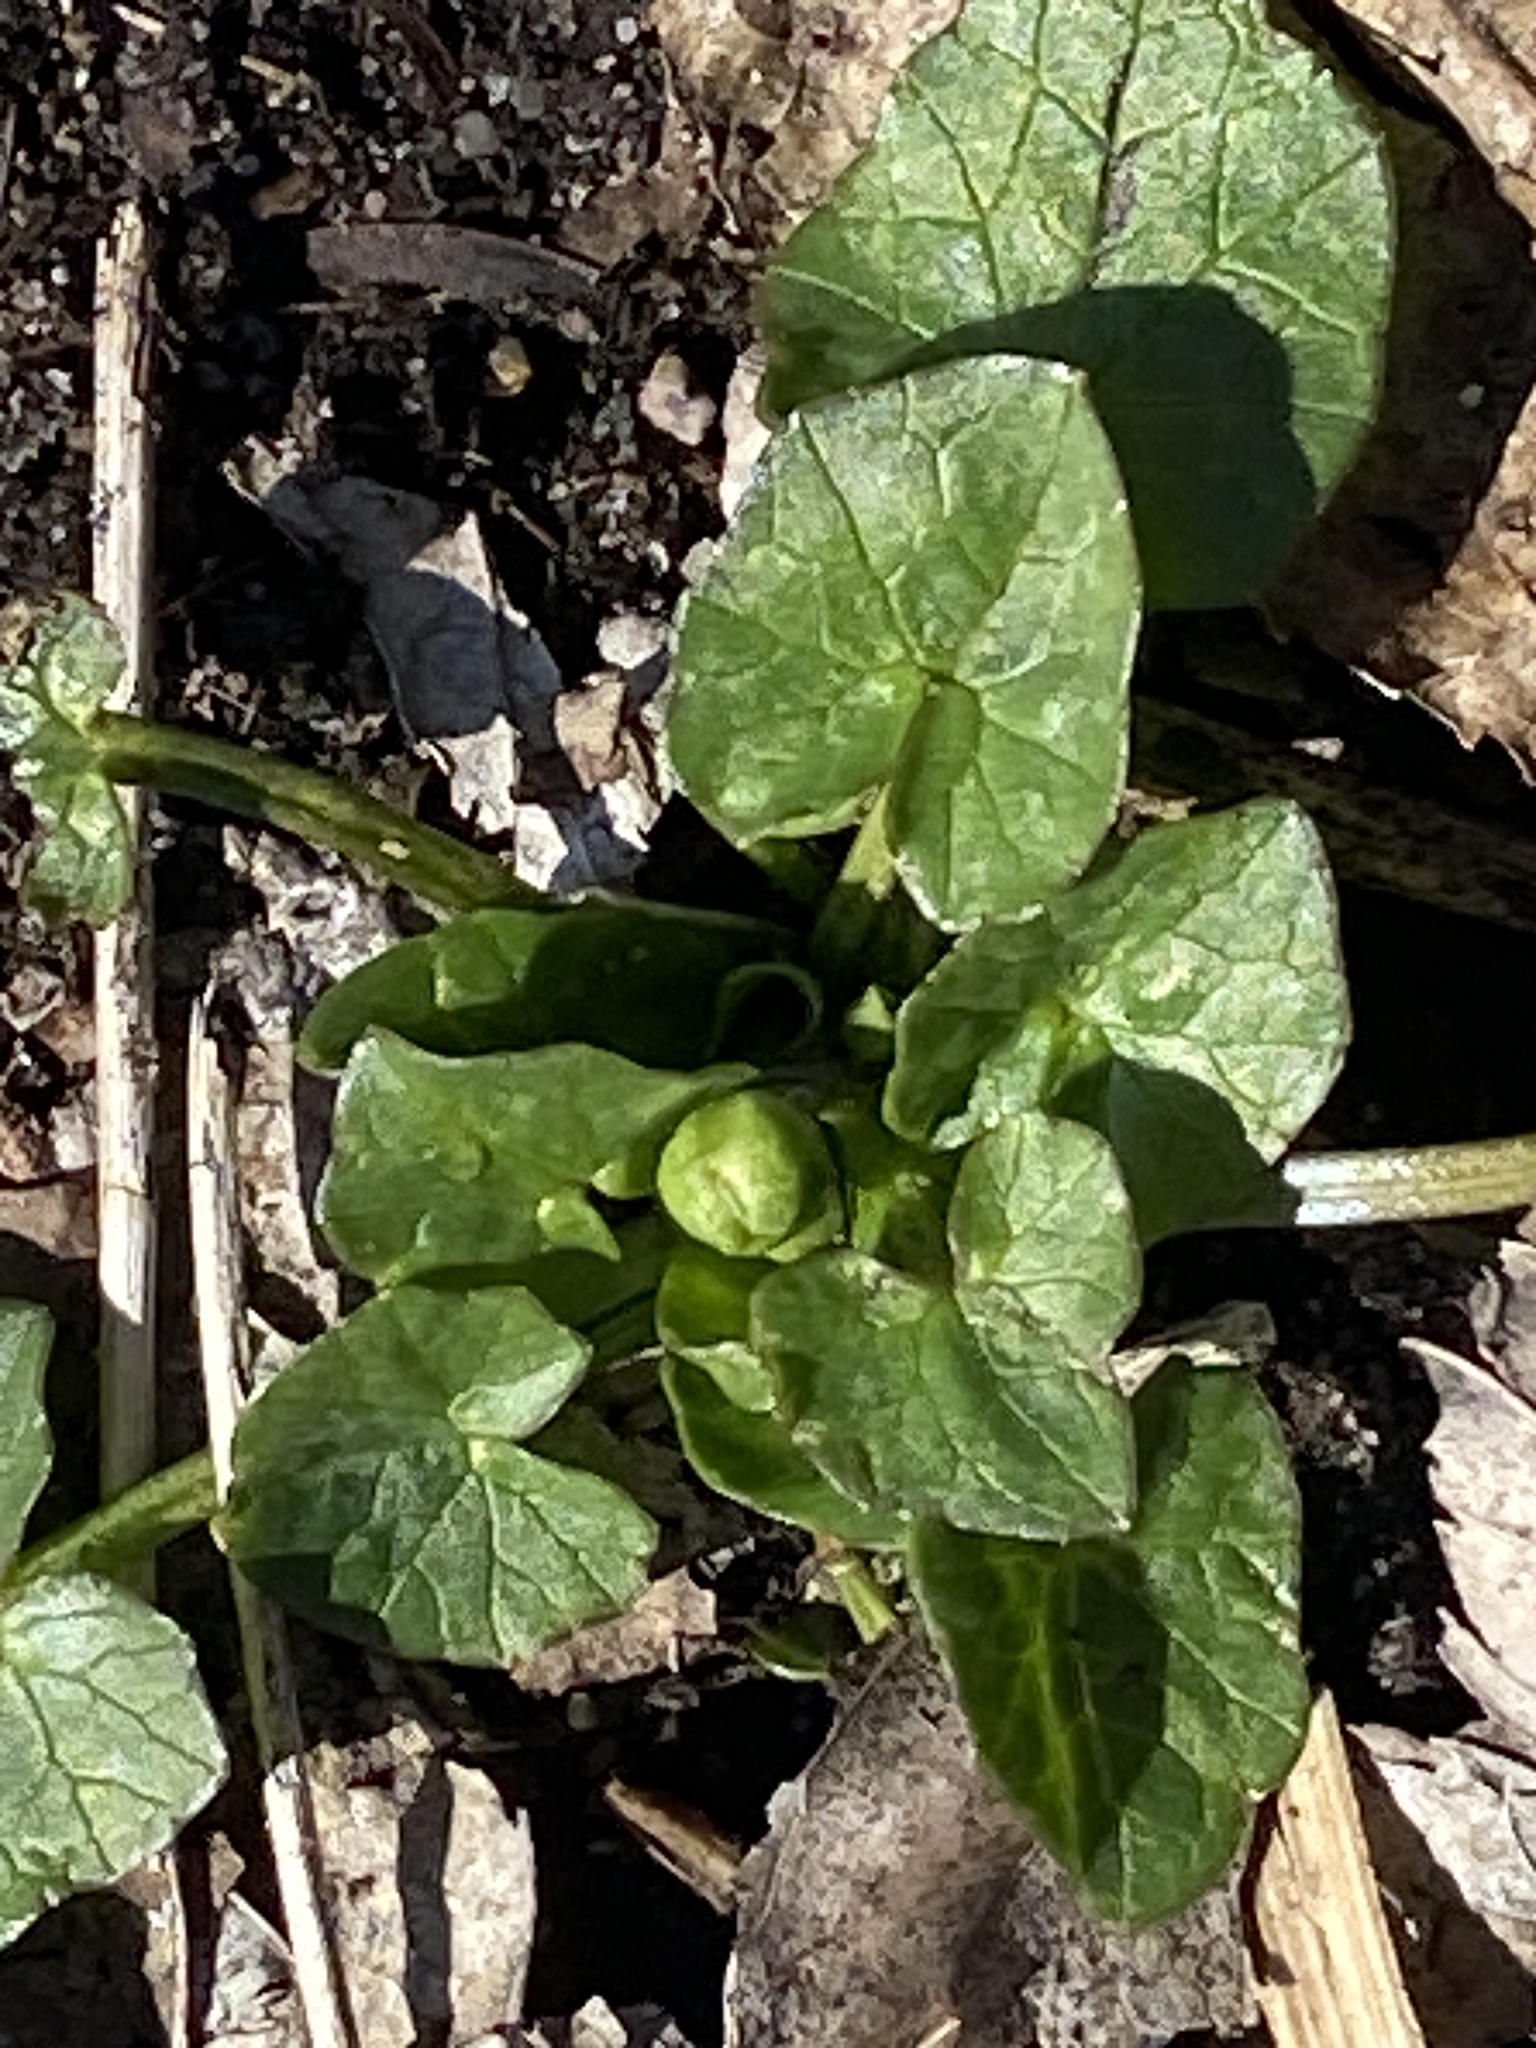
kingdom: Plantae
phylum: Tracheophyta
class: Magnoliopsida
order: Ranunculales
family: Ranunculaceae
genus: Ficaria
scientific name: Ficaria verna
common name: Lesser celandine
